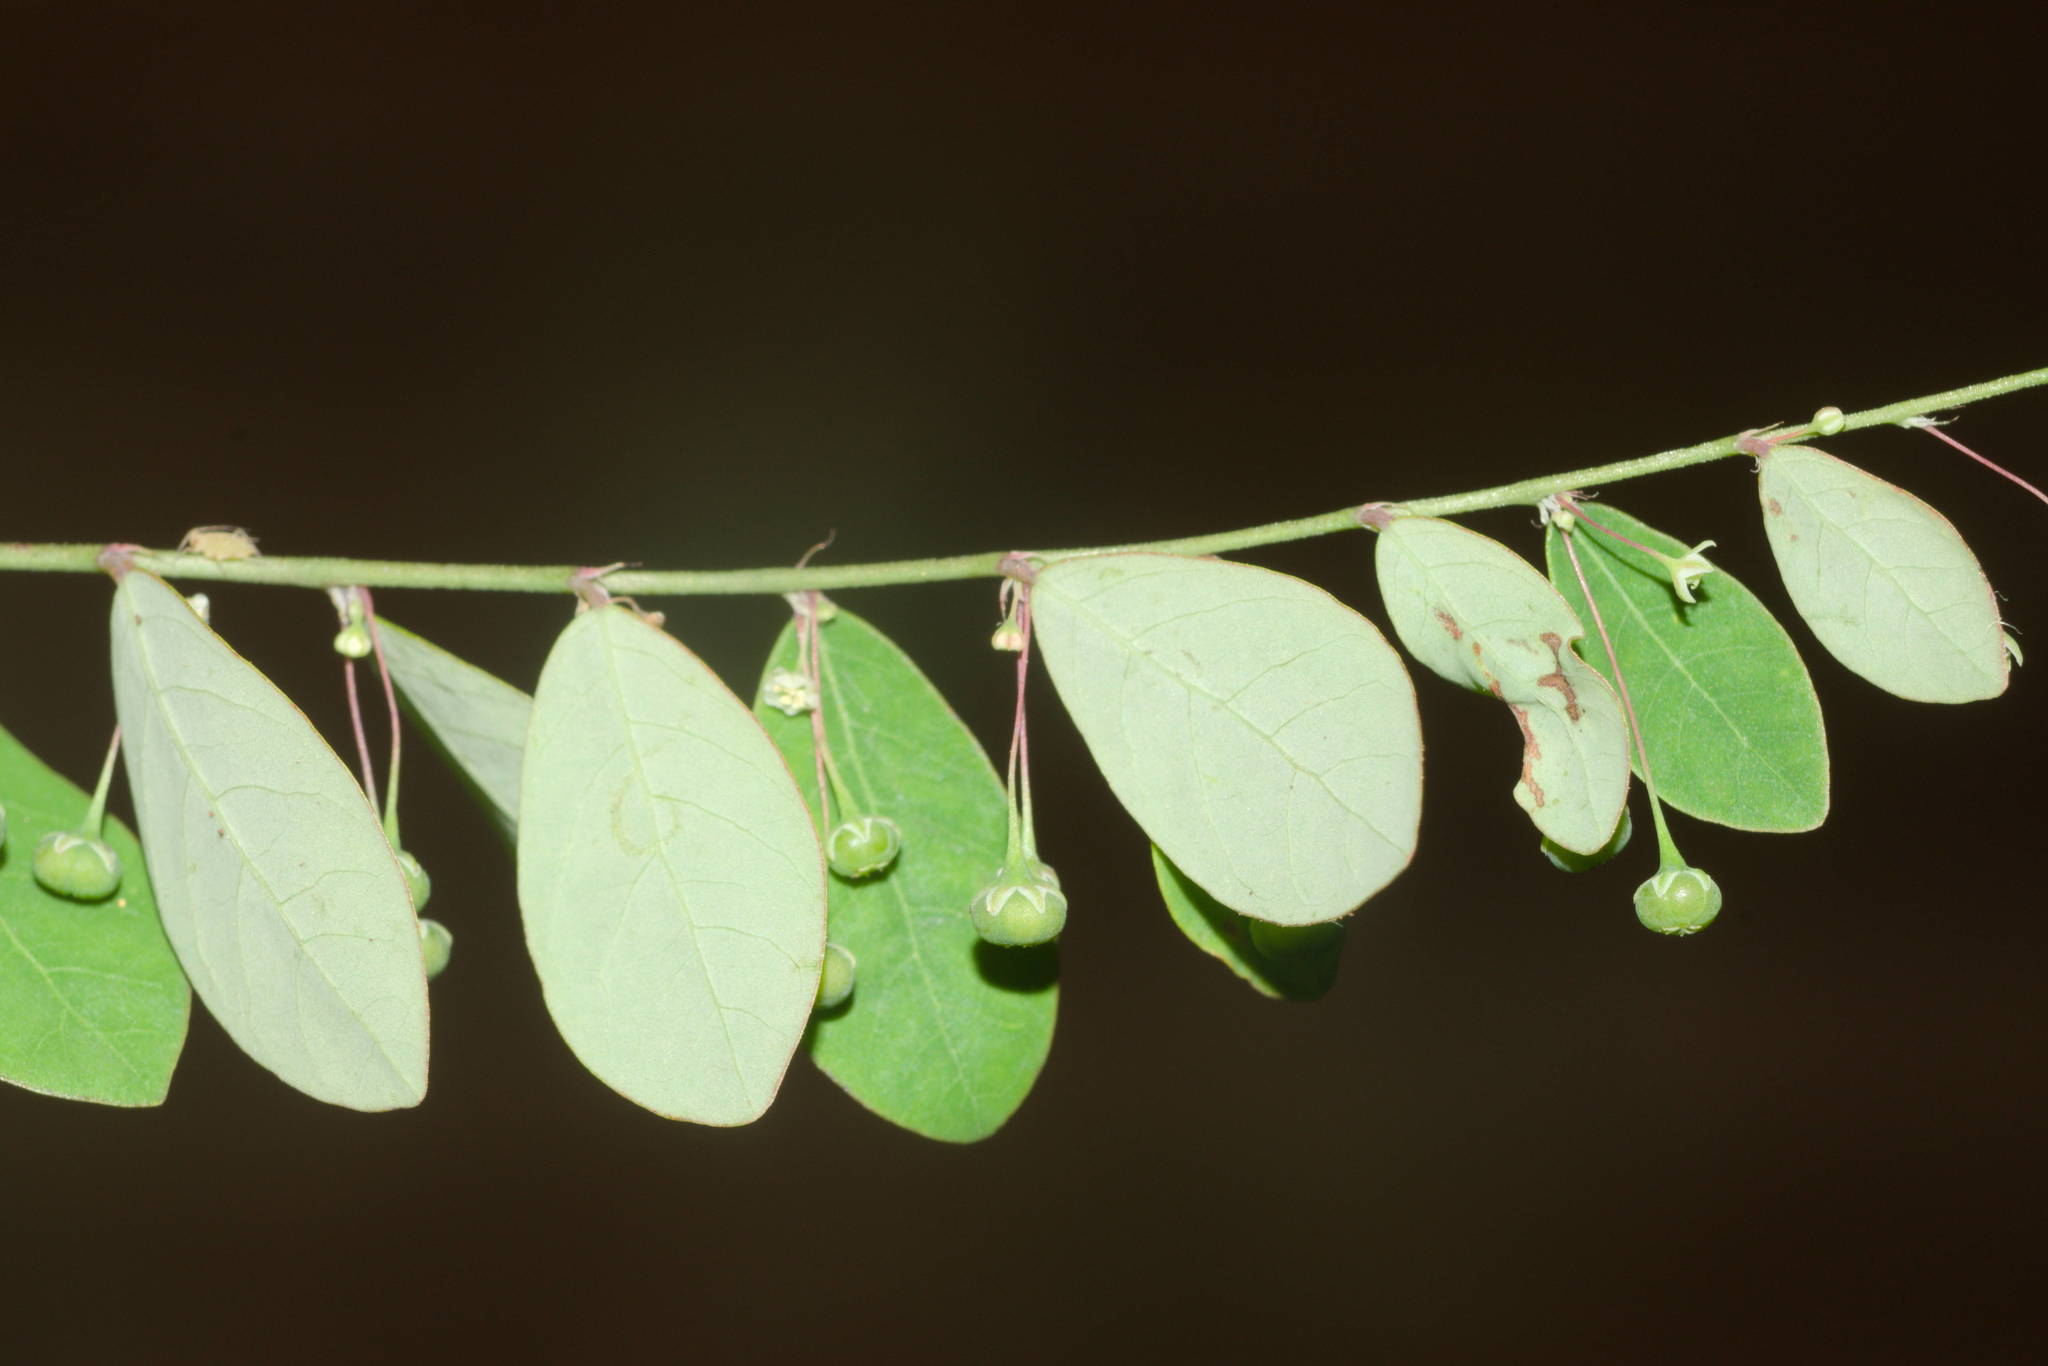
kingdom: Plantae
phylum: Tracheophyta
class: Magnoliopsida
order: Malpighiales
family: Phyllanthaceae
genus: Phyllanthus
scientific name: Phyllanthus tenellus
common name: Mascarene island leaf-flower
